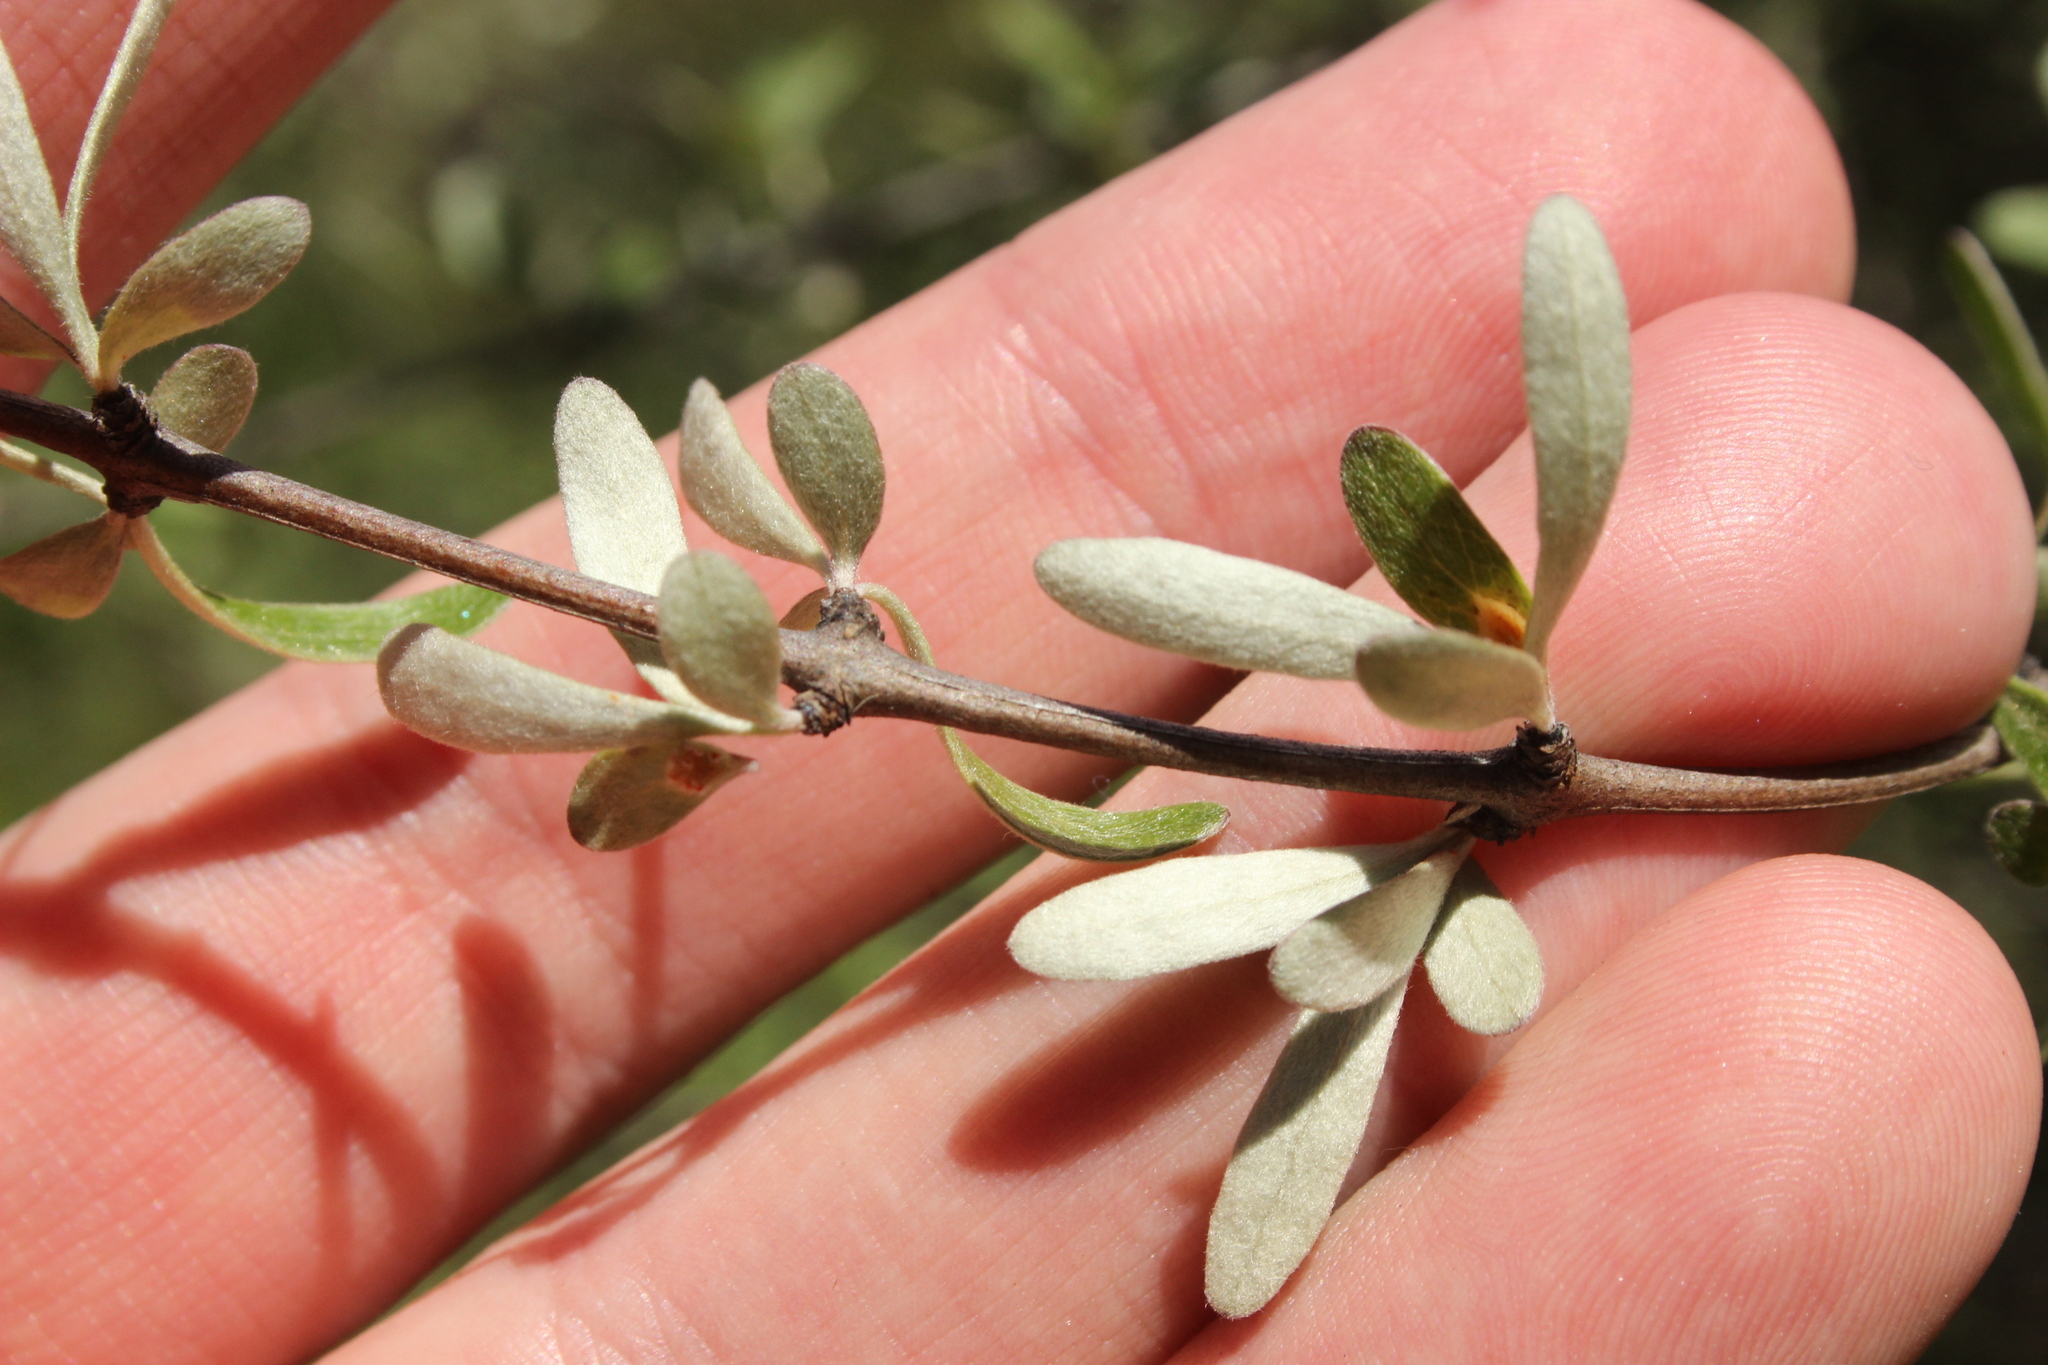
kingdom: Plantae
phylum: Tracheophyta
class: Magnoliopsida
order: Asterales
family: Asteraceae
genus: Olearia
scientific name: Olearia odorata
